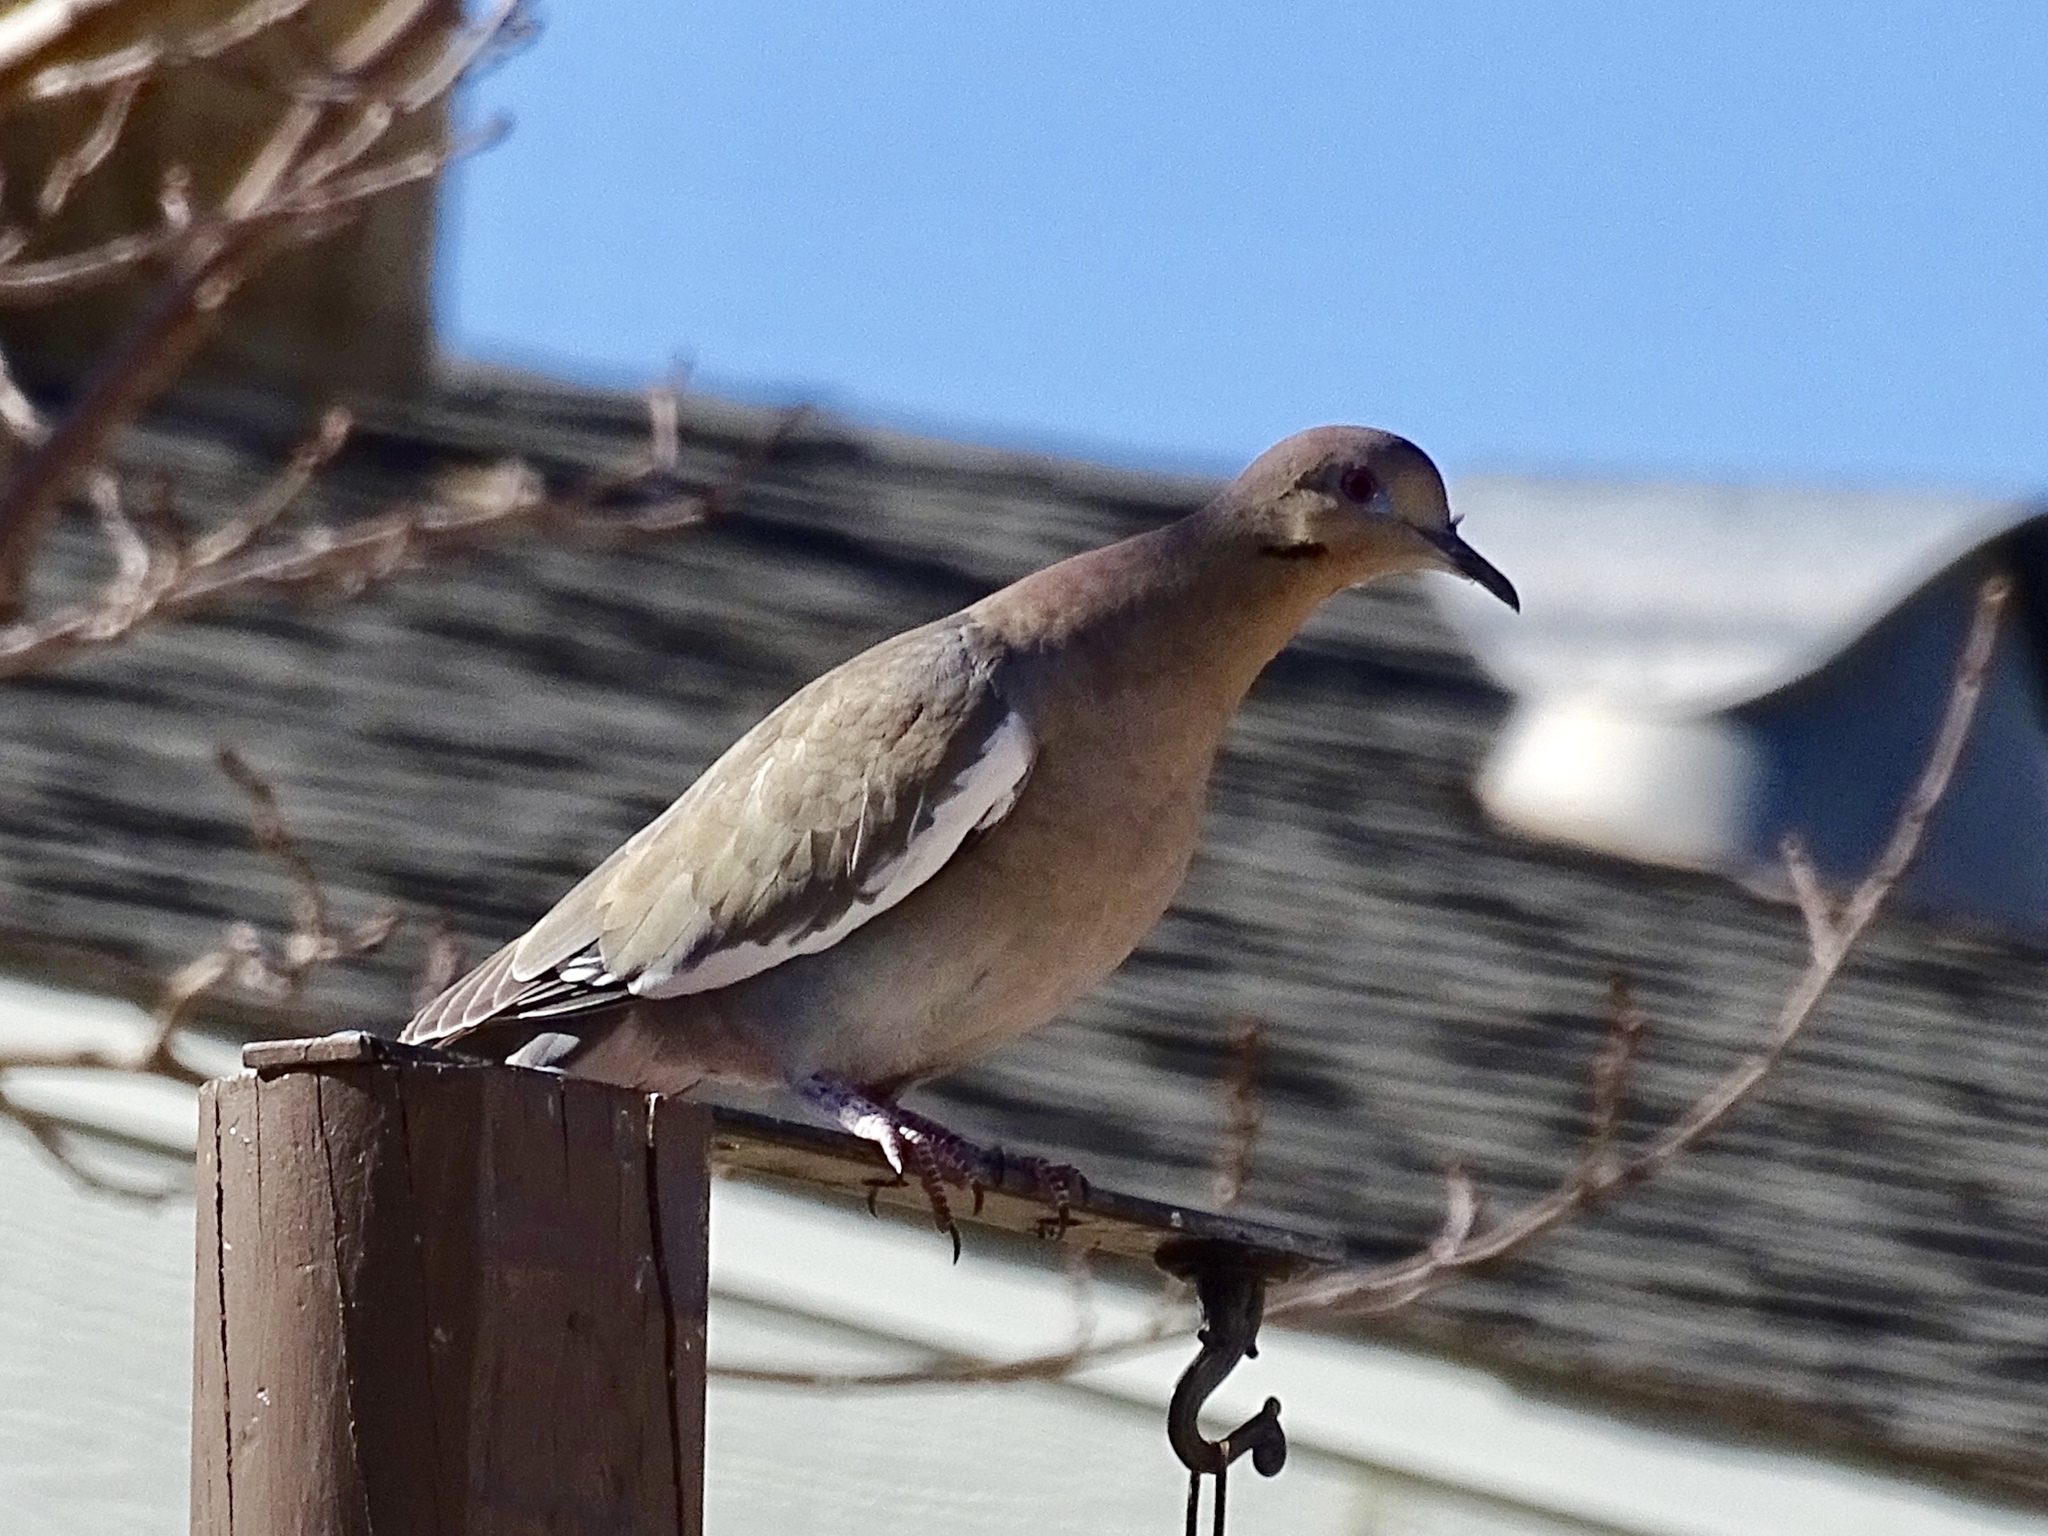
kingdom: Animalia
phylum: Chordata
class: Aves
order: Columbiformes
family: Columbidae
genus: Zenaida
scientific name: Zenaida asiatica
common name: White-winged dove
